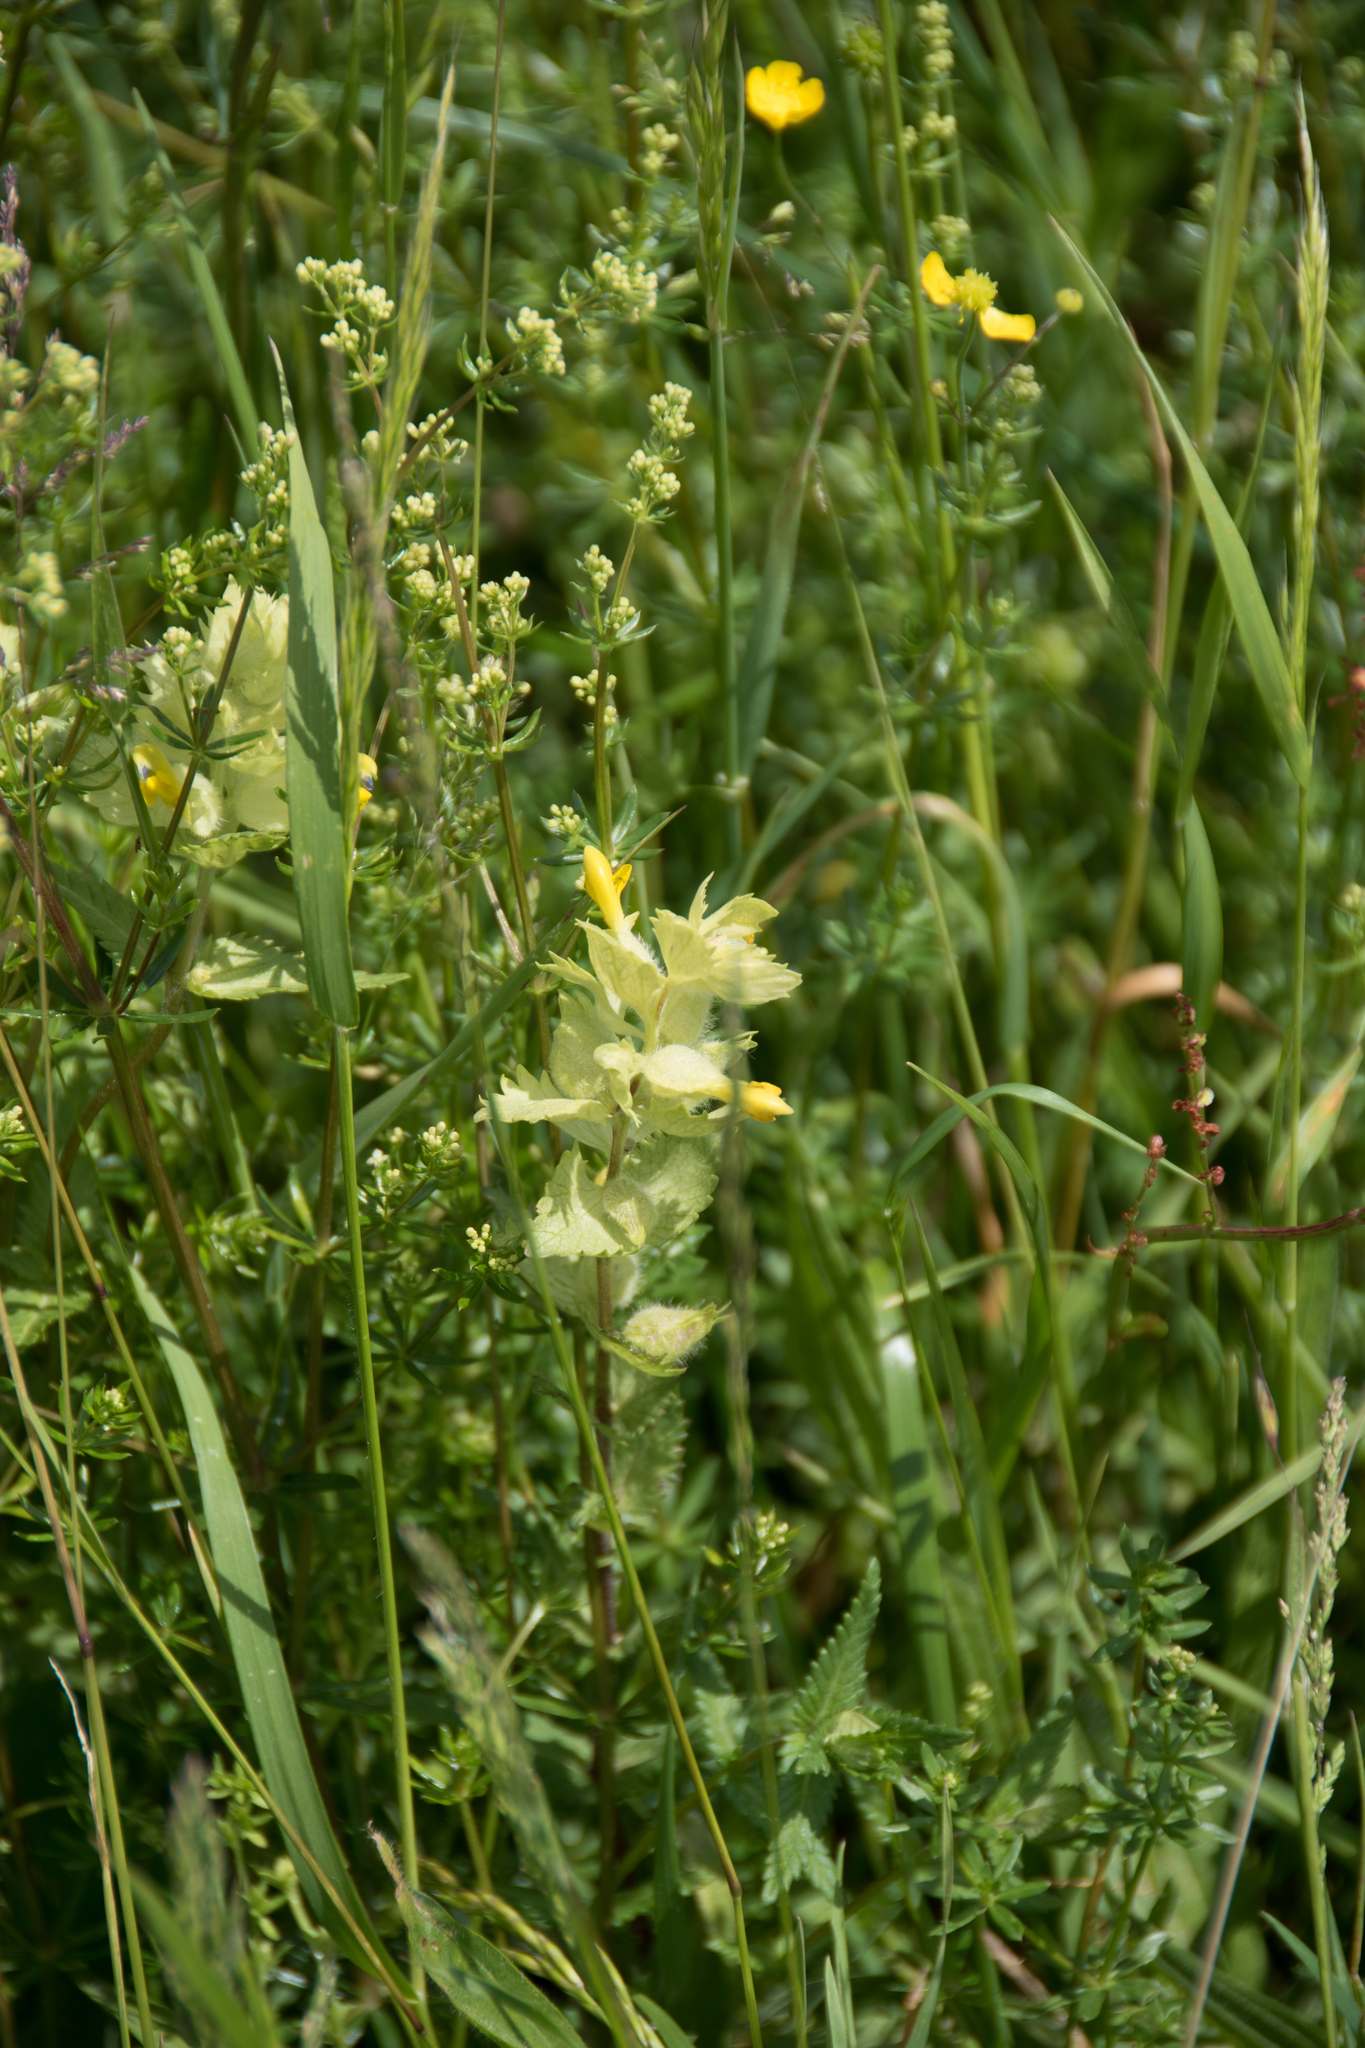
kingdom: Plantae
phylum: Tracheophyta
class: Magnoliopsida
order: Lamiales
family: Orobanchaceae
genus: Rhinanthus
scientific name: Rhinanthus alectorolophus
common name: Greater yellow-rattle
